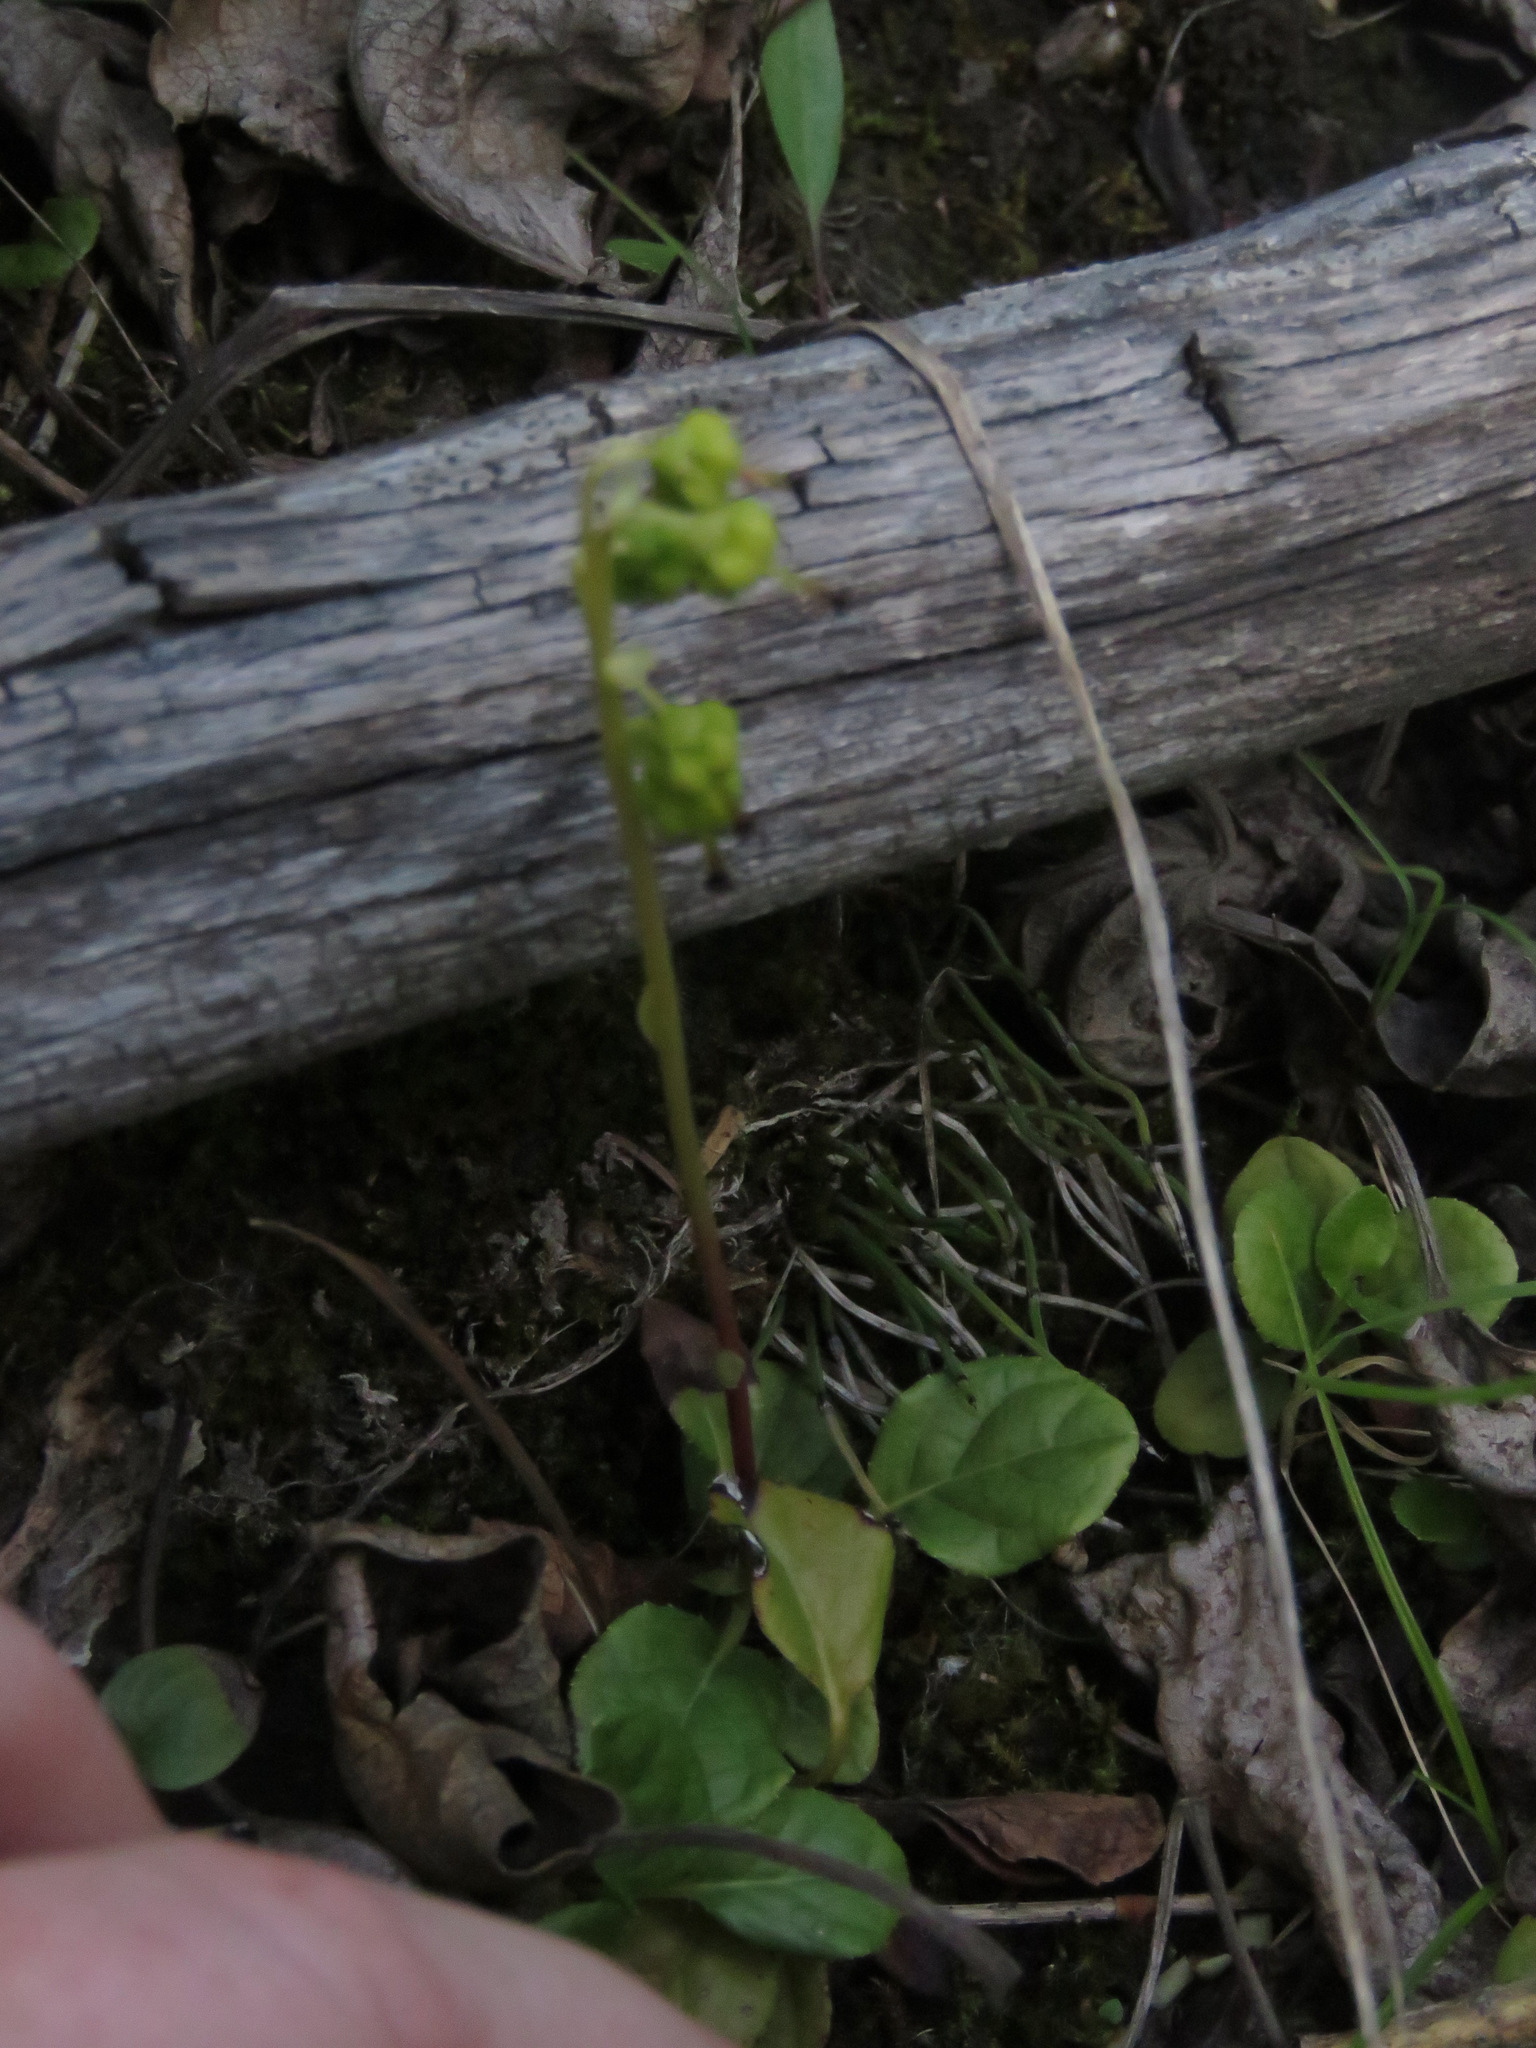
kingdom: Plantae
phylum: Tracheophyta
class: Magnoliopsida
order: Ericales
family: Ericaceae
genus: Orthilia
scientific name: Orthilia secunda
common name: One-sided orthilia
